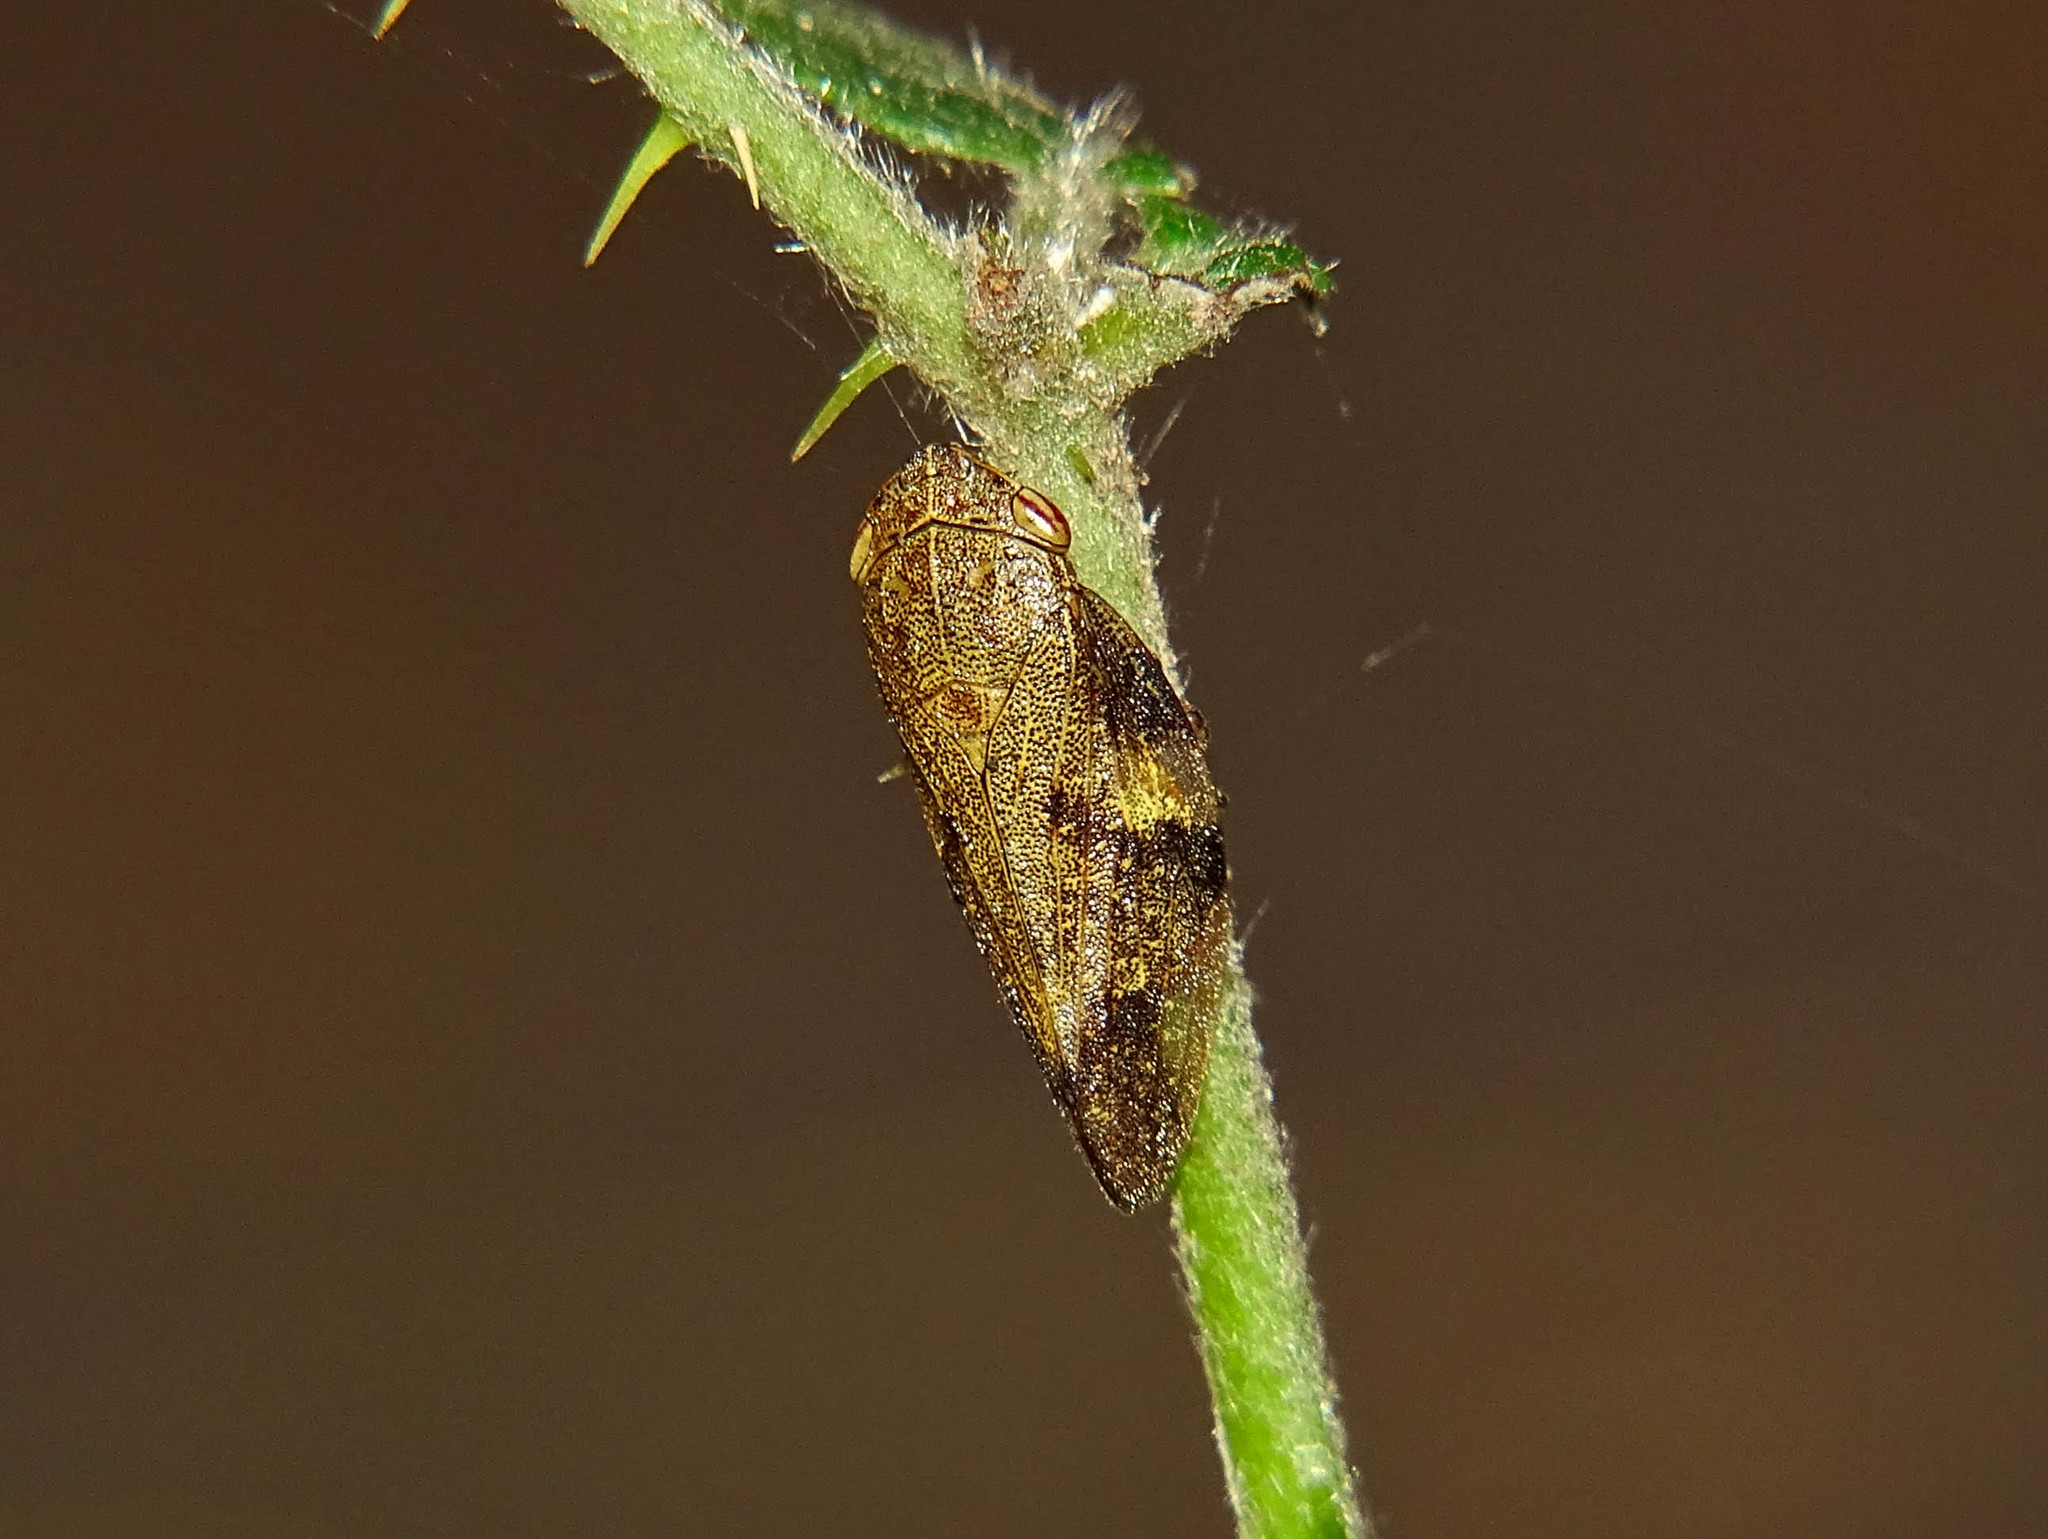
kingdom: Animalia
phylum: Arthropoda
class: Insecta
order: Hemiptera
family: Aphrophoridae
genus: Aphrophora
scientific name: Aphrophora alni
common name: European alder spittlebug
